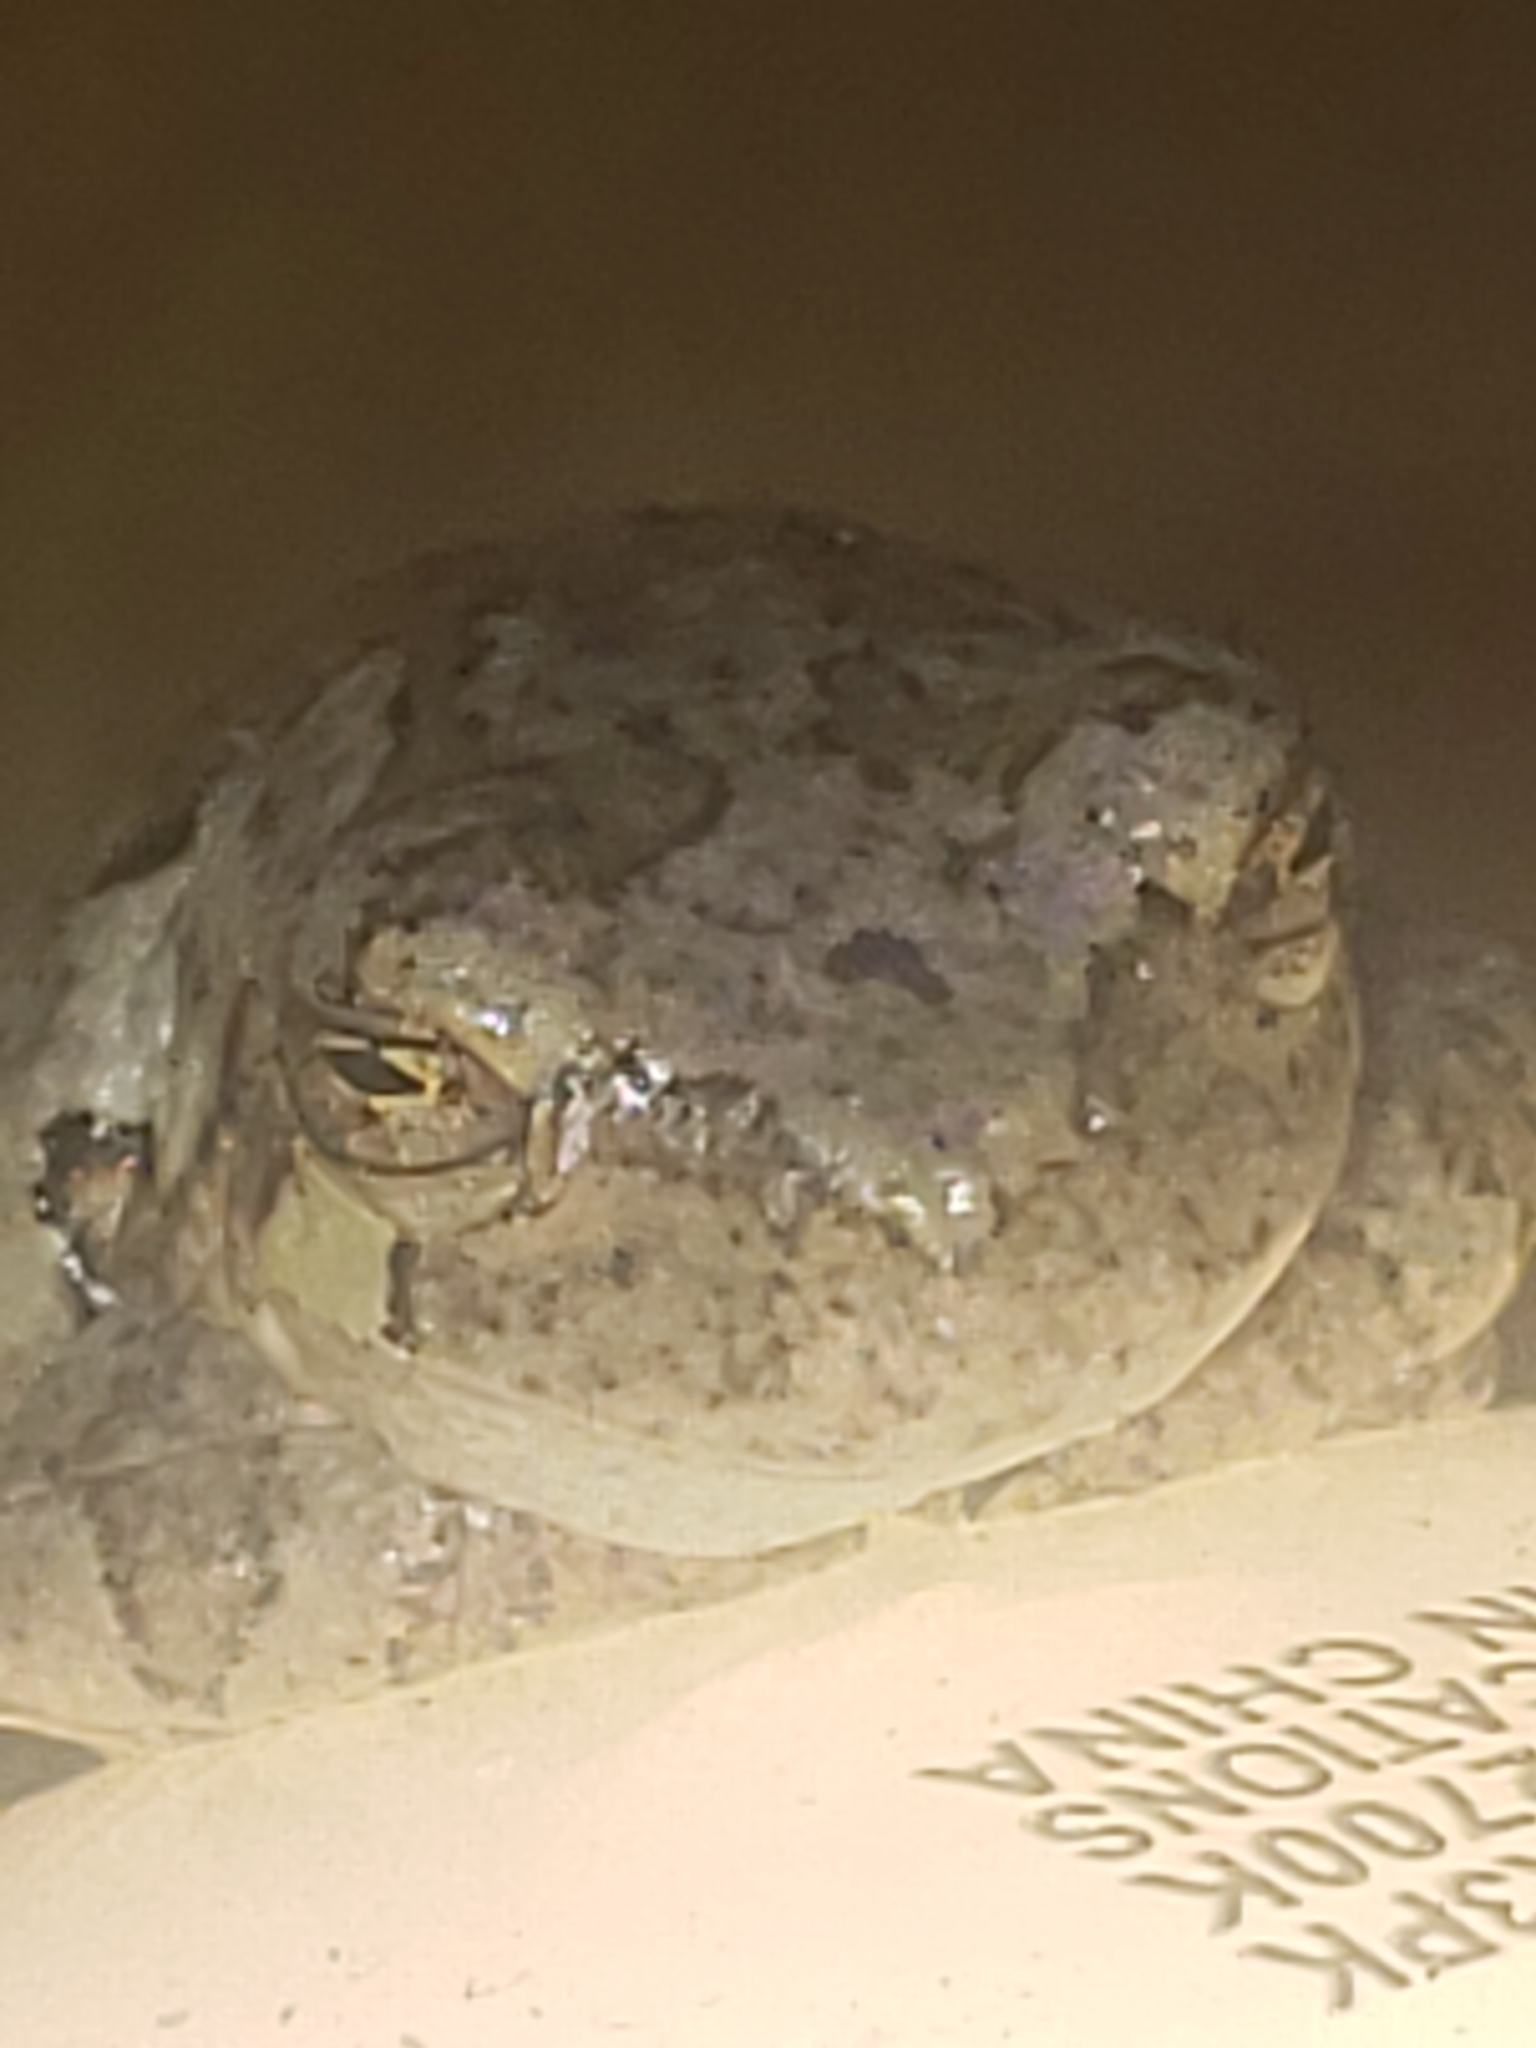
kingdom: Animalia
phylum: Chordata
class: Amphibia
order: Anura
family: Hylidae
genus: Hyla
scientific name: Hyla
